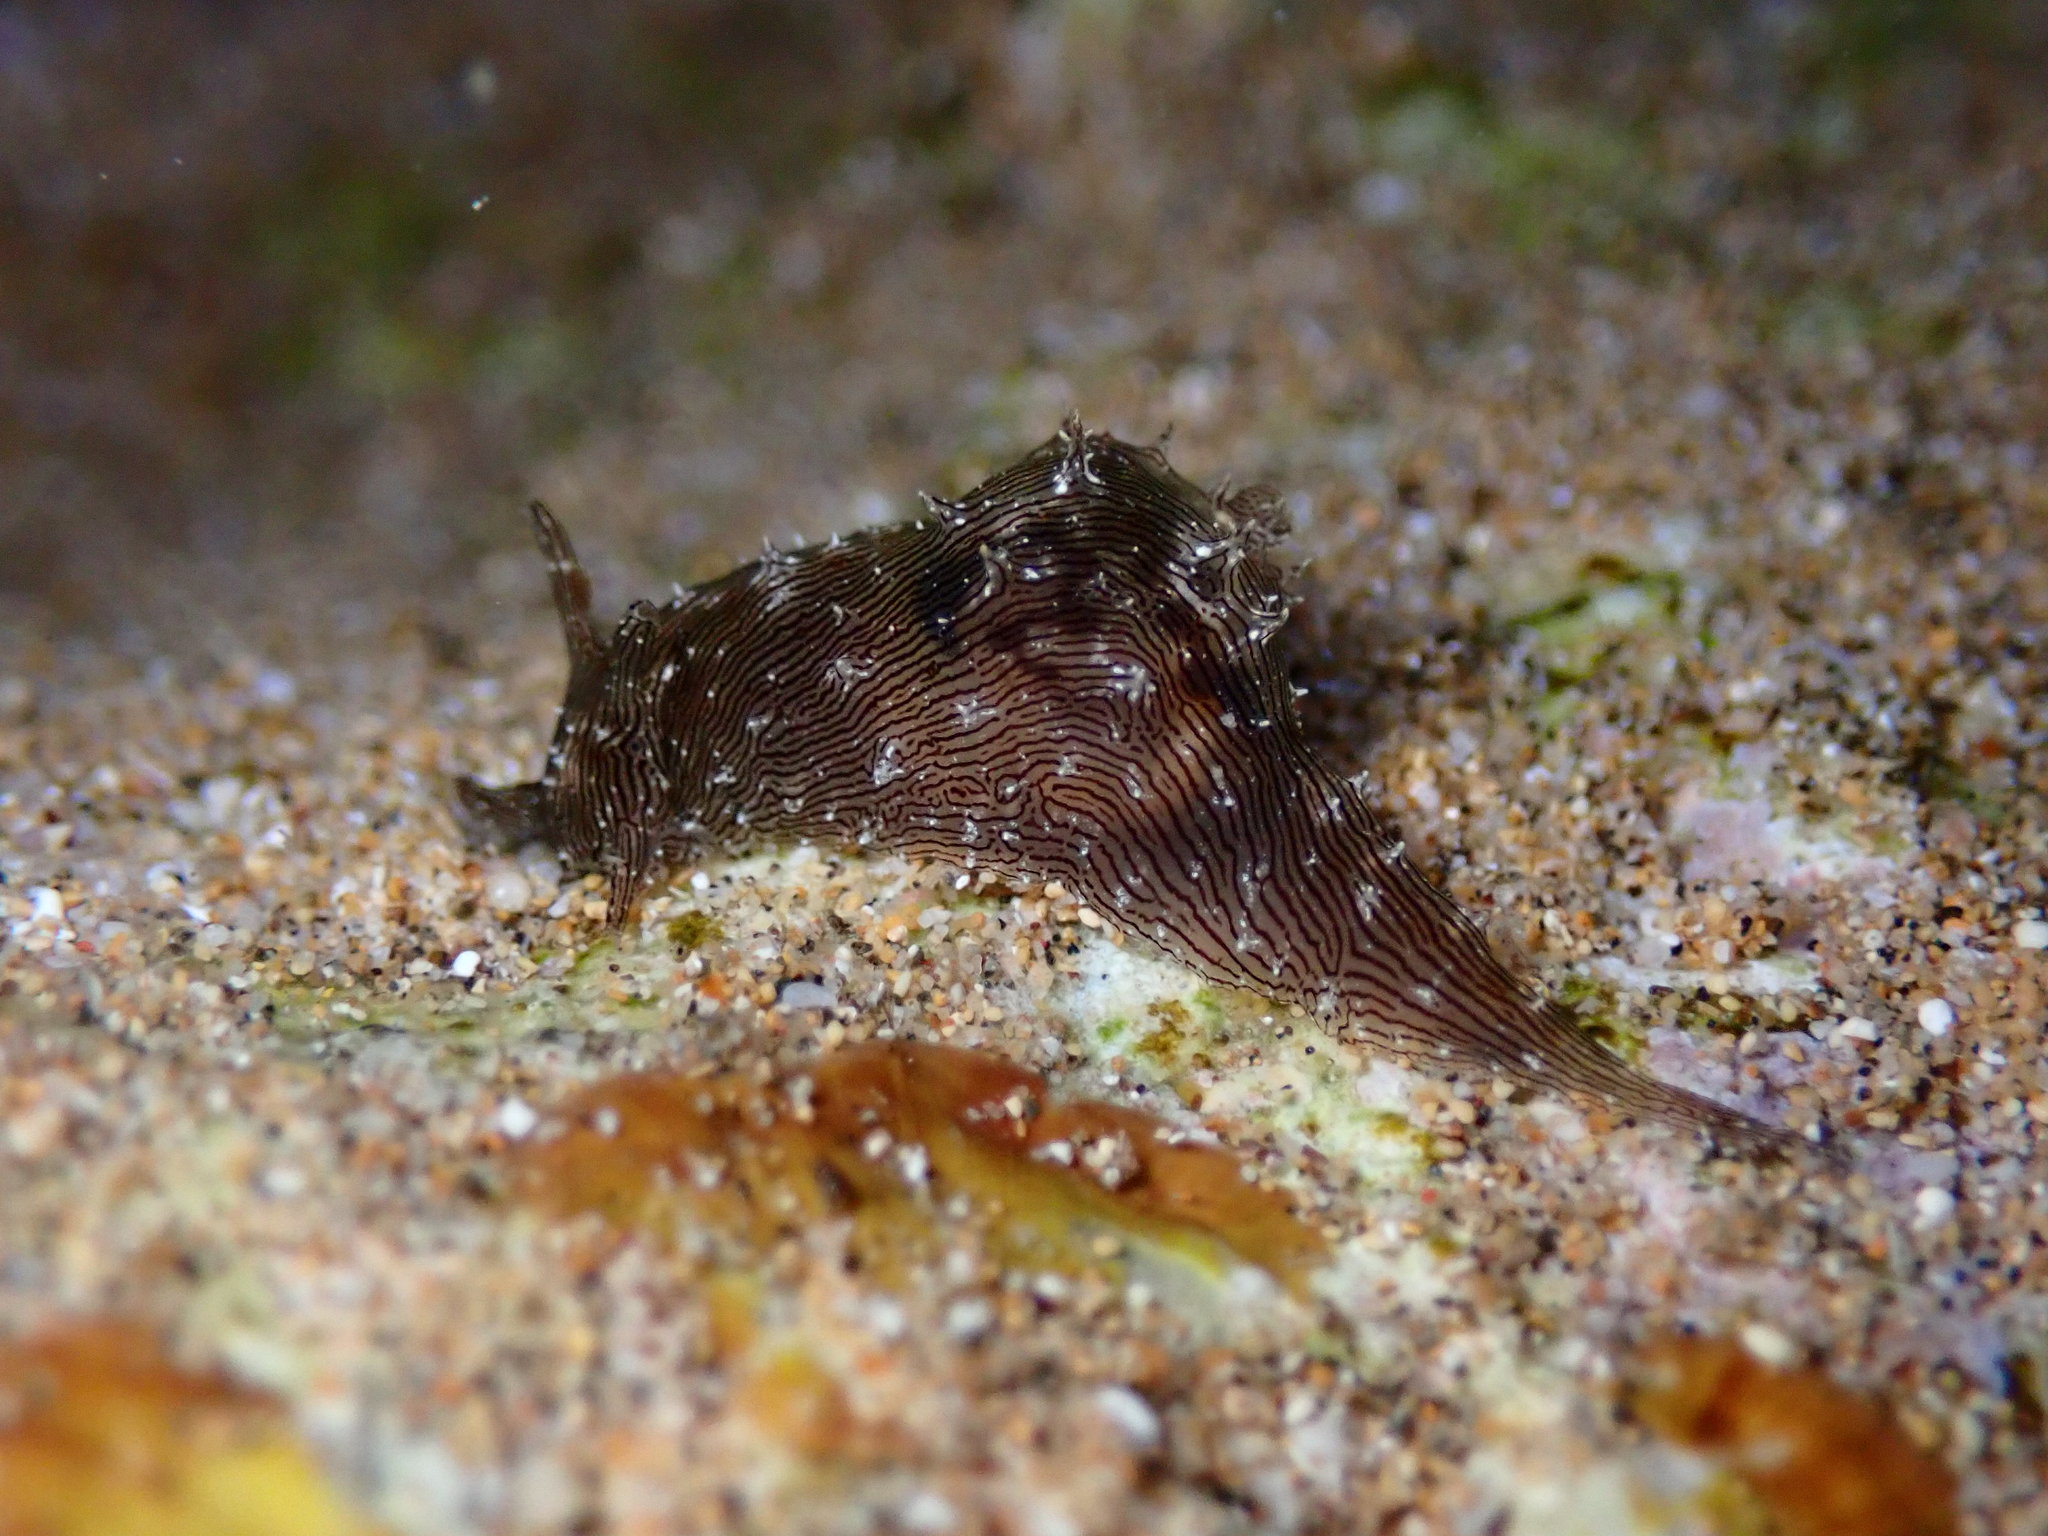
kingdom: Animalia
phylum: Mollusca
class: Gastropoda
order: Aplysiida
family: Aplysiidae
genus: Stylocheilus
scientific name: Stylocheilus striatus
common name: Striated seahare
